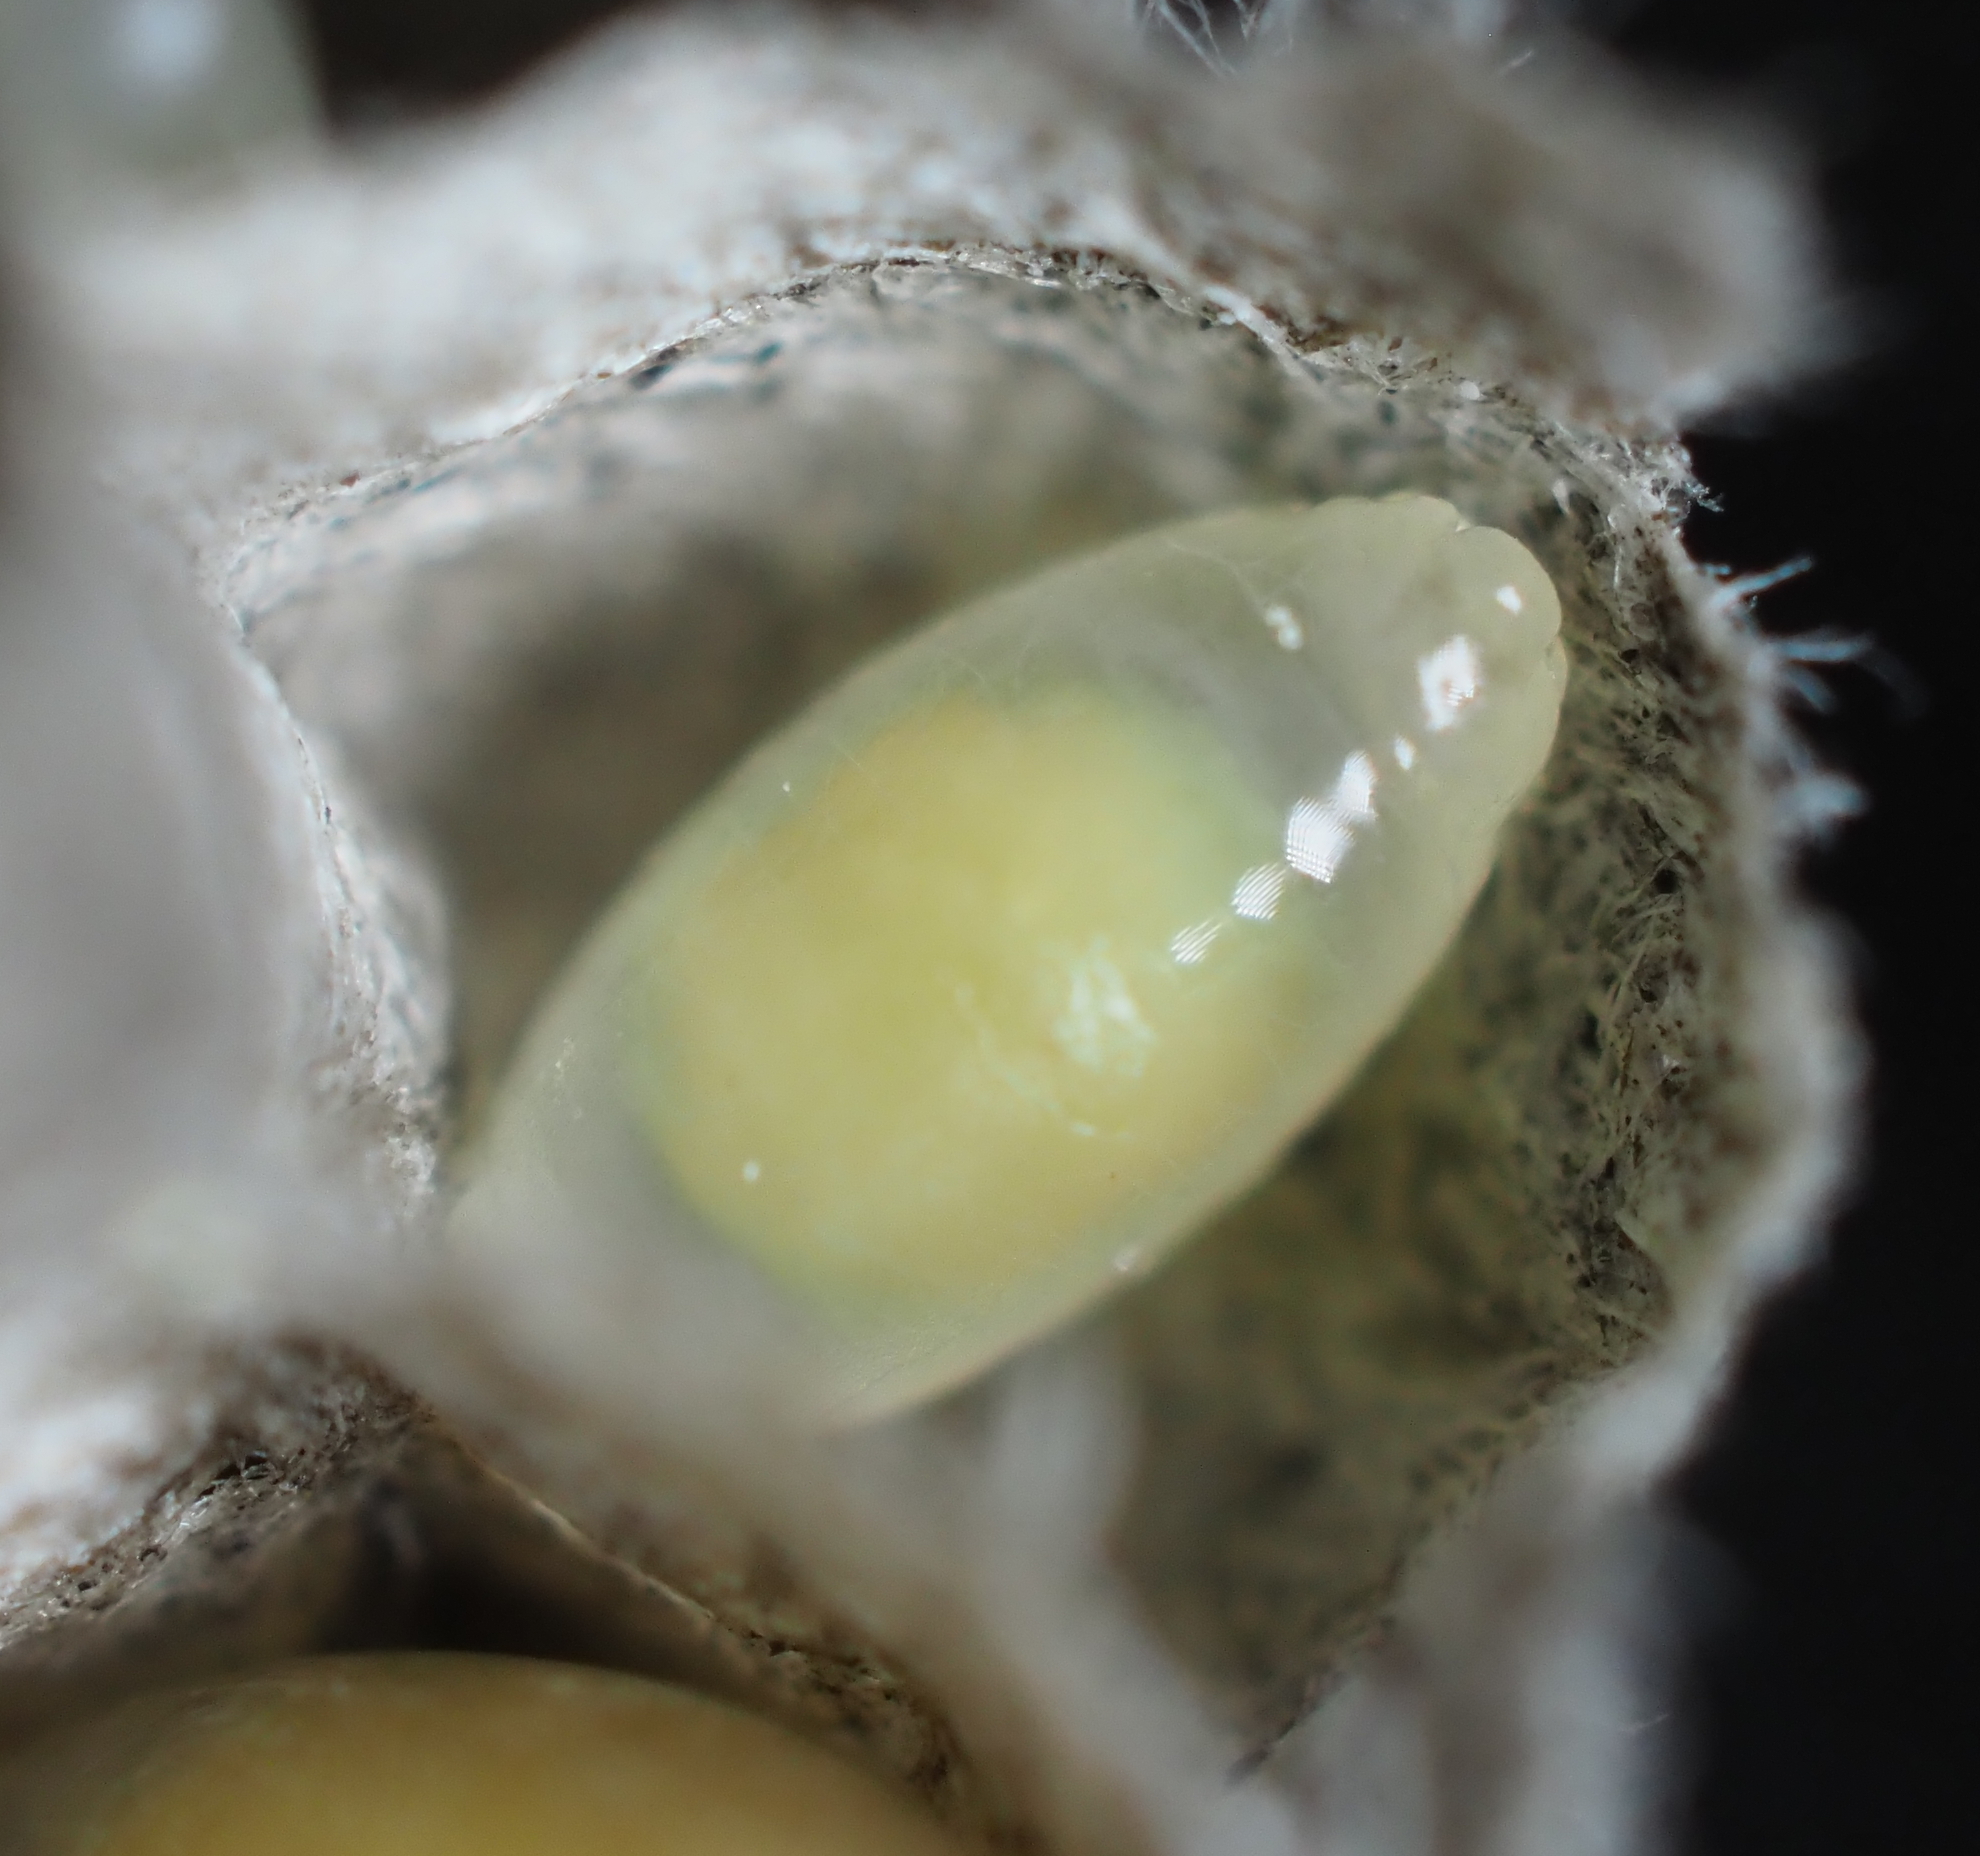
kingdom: Animalia
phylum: Arthropoda
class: Insecta
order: Hymenoptera
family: Eumenidae
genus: Polistes
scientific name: Polistes metricus
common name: Metric paper wasp
